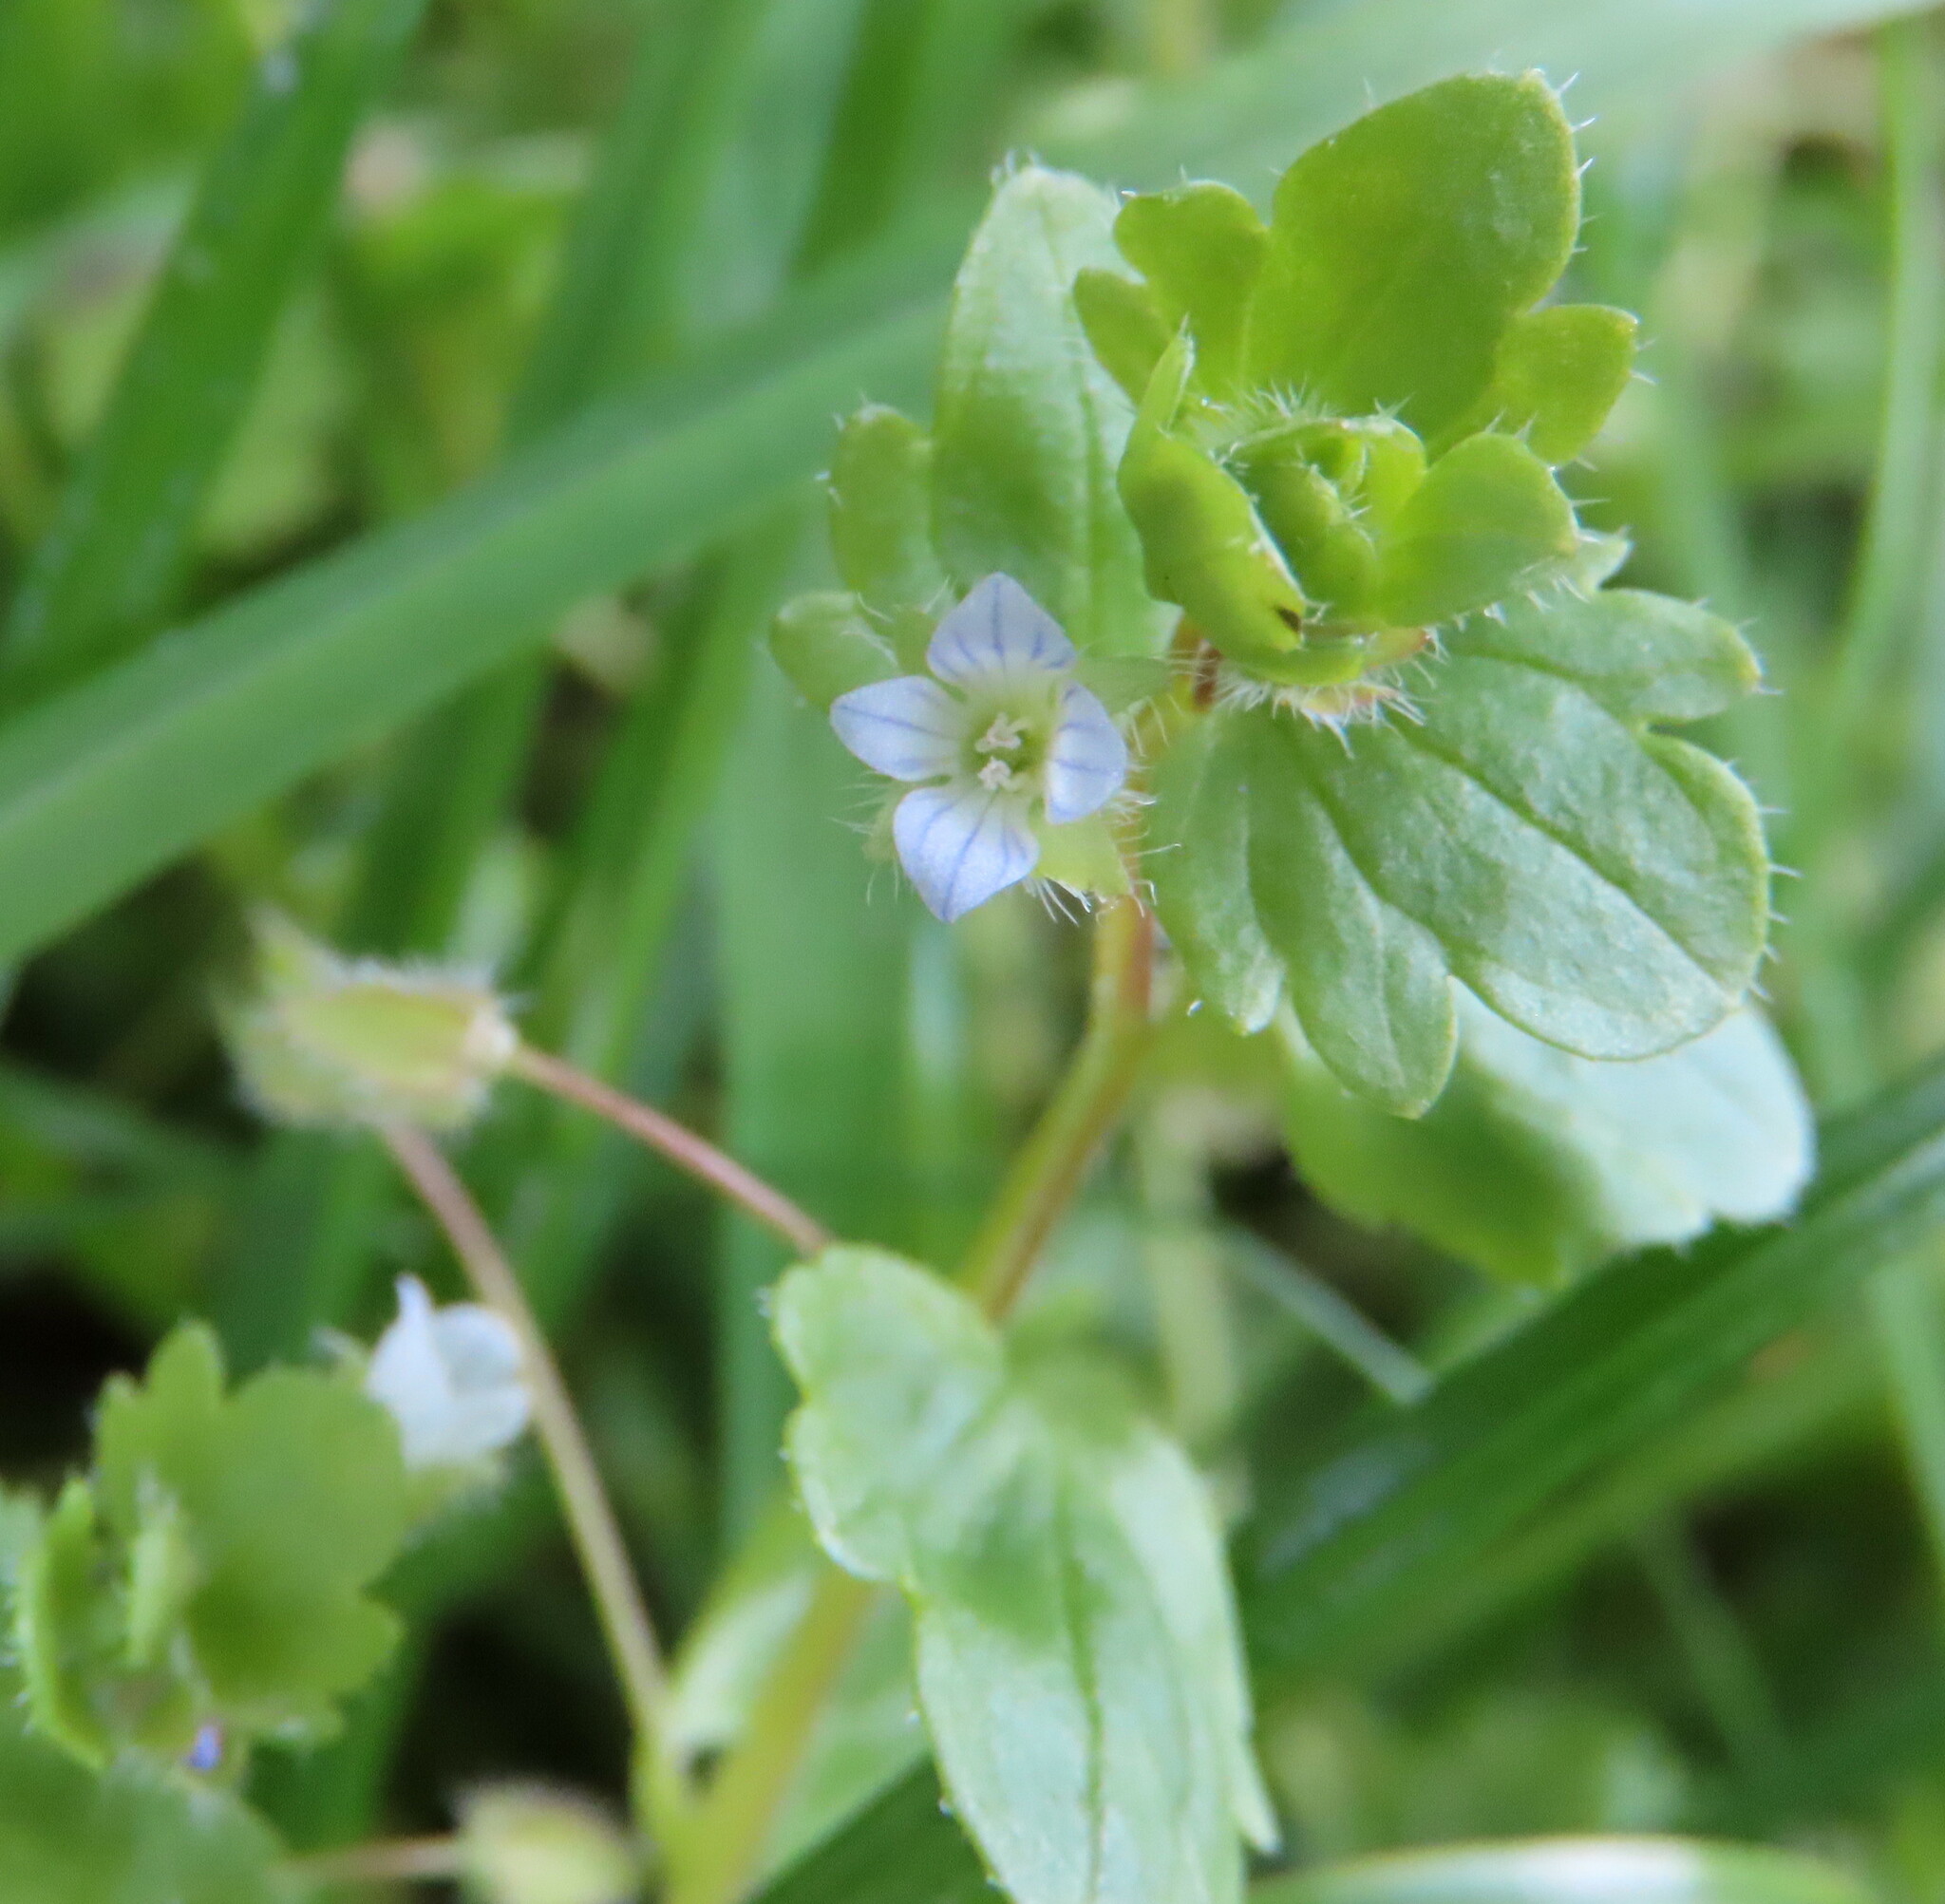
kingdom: Plantae
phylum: Tracheophyta
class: Magnoliopsida
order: Lamiales
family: Plantaginaceae
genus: Veronica
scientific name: Veronica hederifolia
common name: Ivy-leaved speedwell
